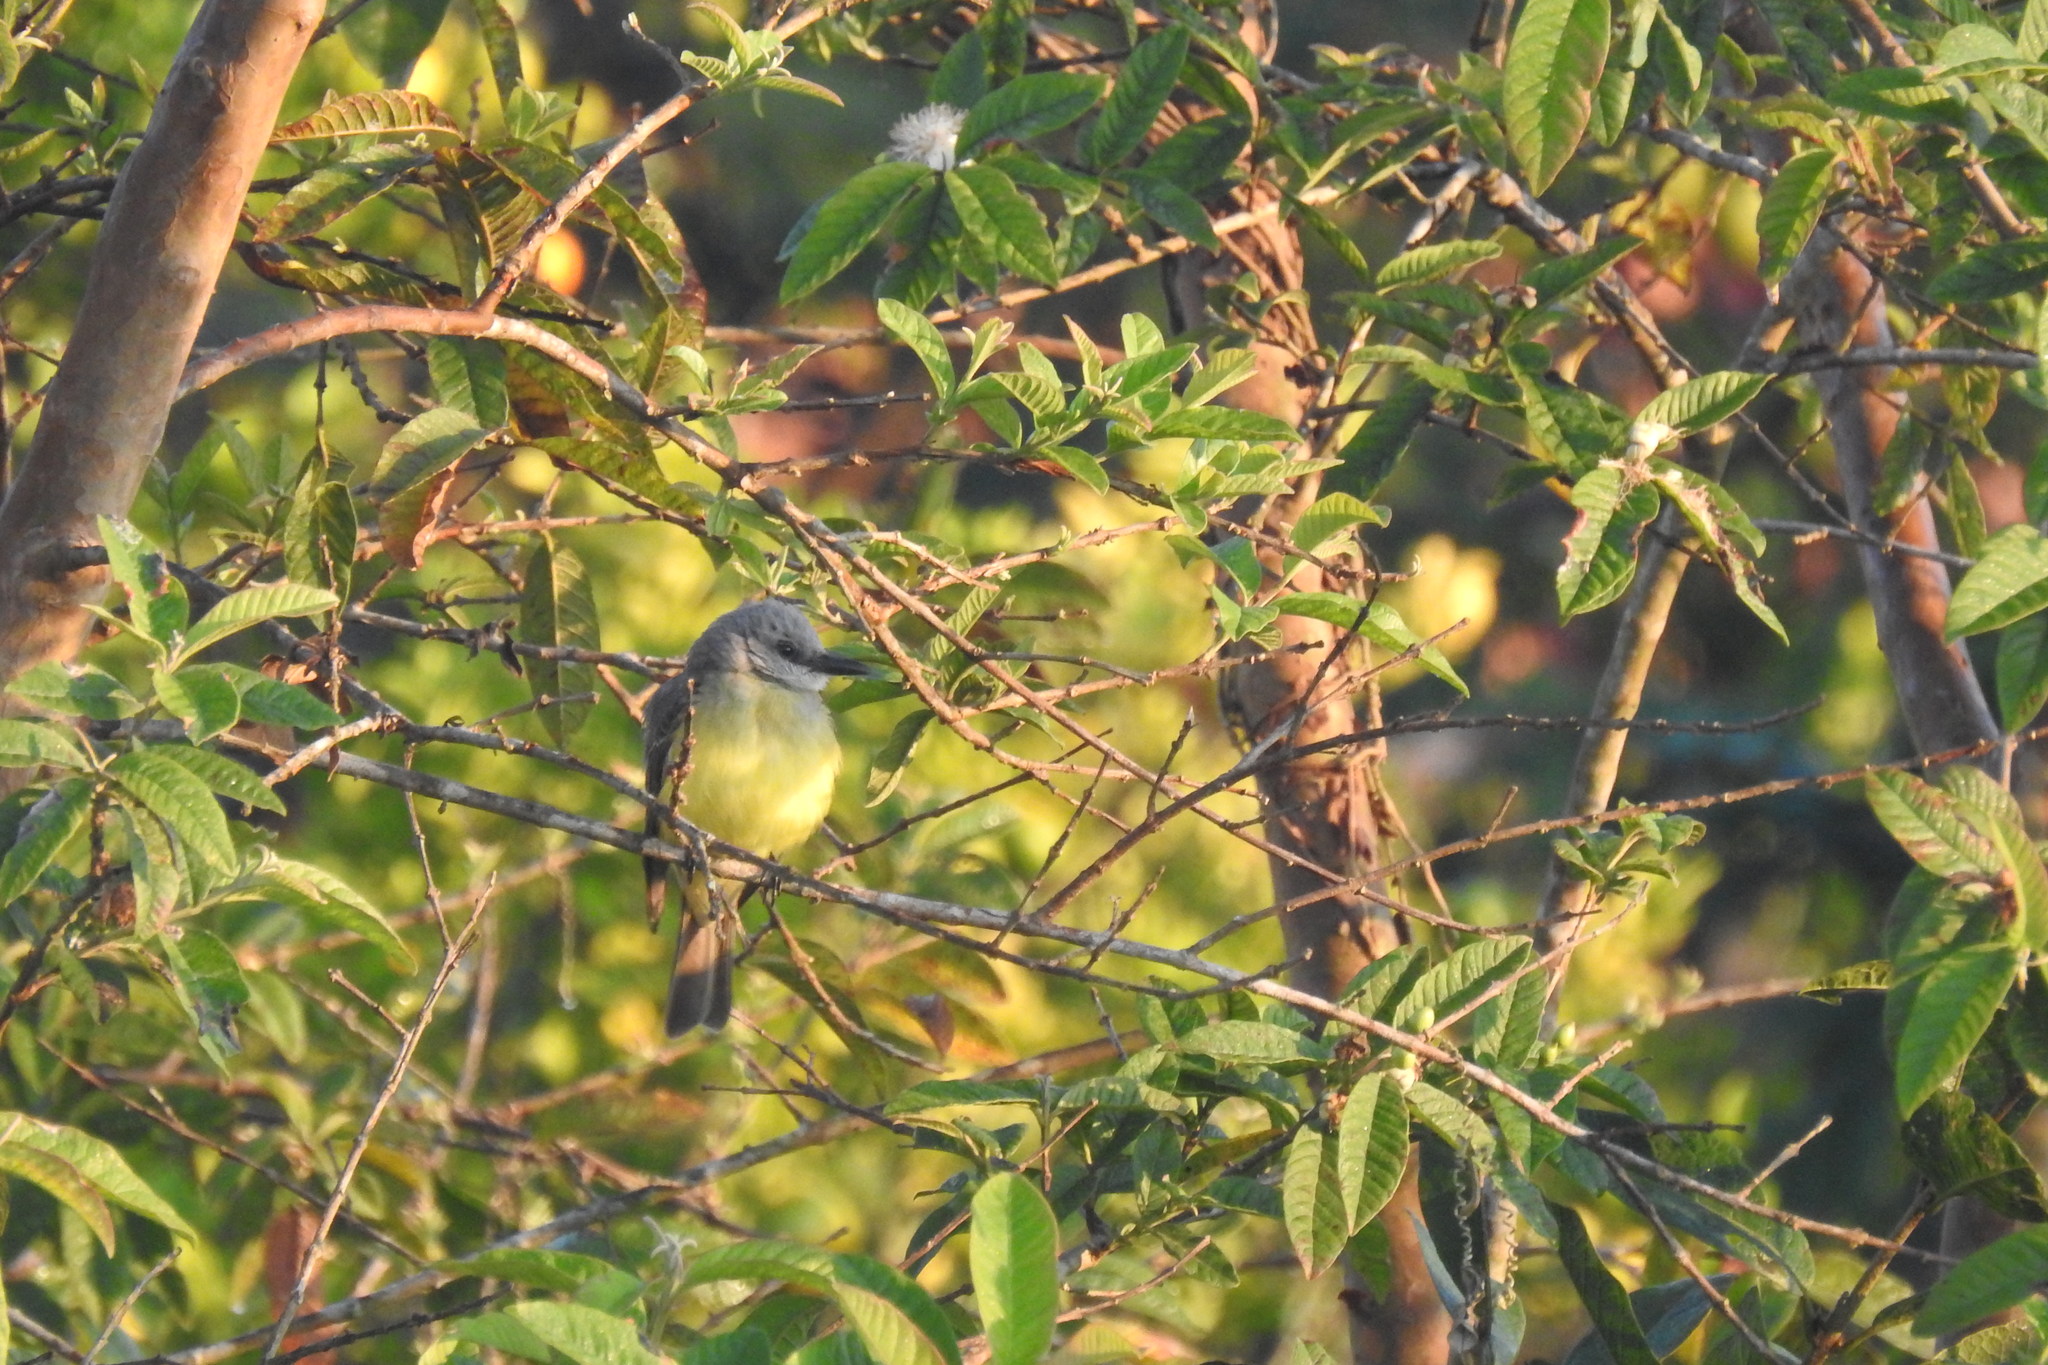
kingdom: Animalia
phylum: Chordata
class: Aves
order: Passeriformes
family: Tyrannidae
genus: Tyrannus
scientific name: Tyrannus melancholicus
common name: Tropical kingbird
